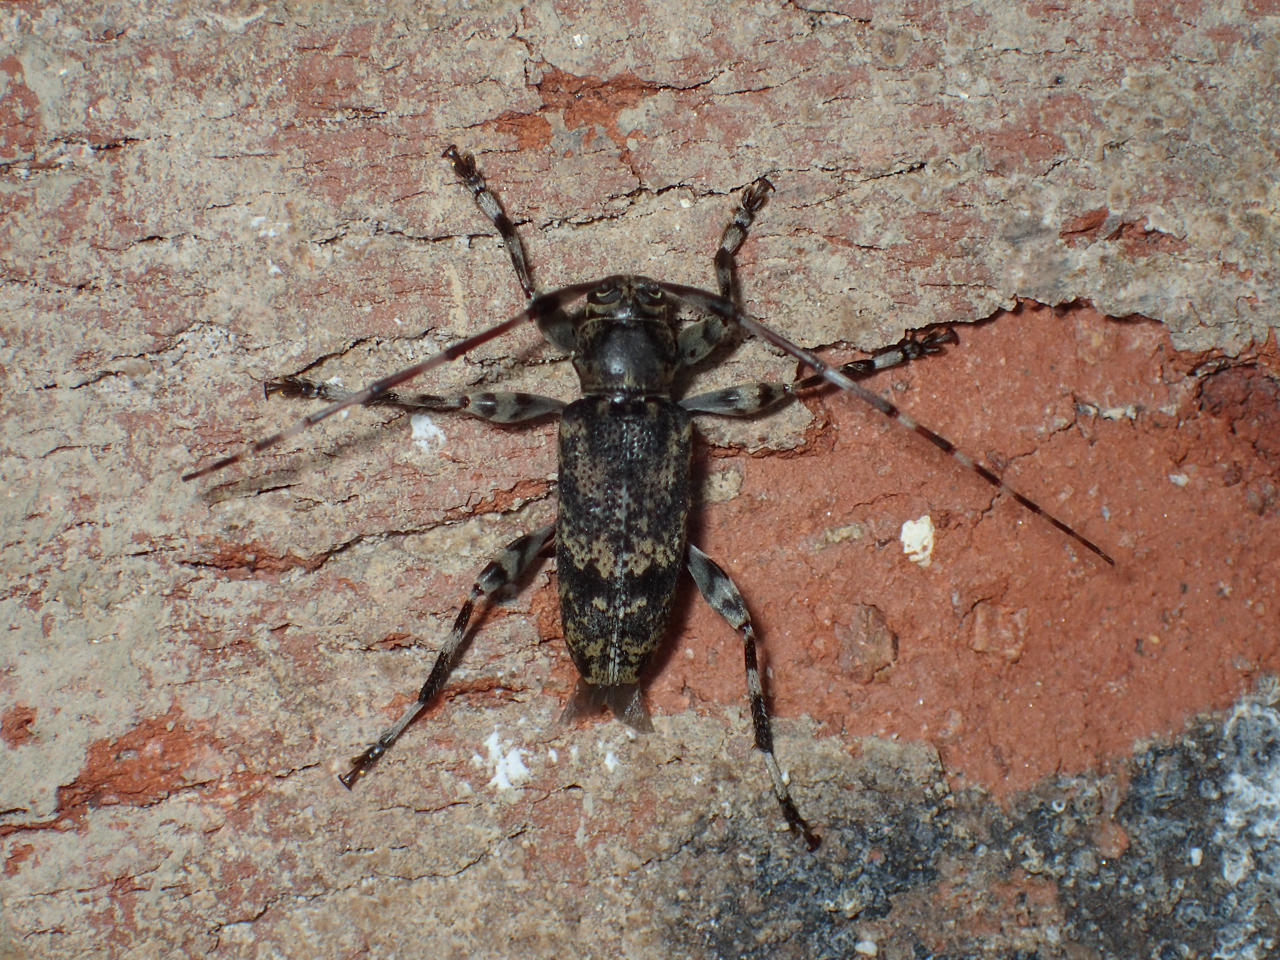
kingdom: Animalia
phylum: Arthropoda
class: Insecta
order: Coleoptera
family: Cerambycidae
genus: Graphisurus
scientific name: Graphisurus fasciatus
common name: Banded graphisurus
